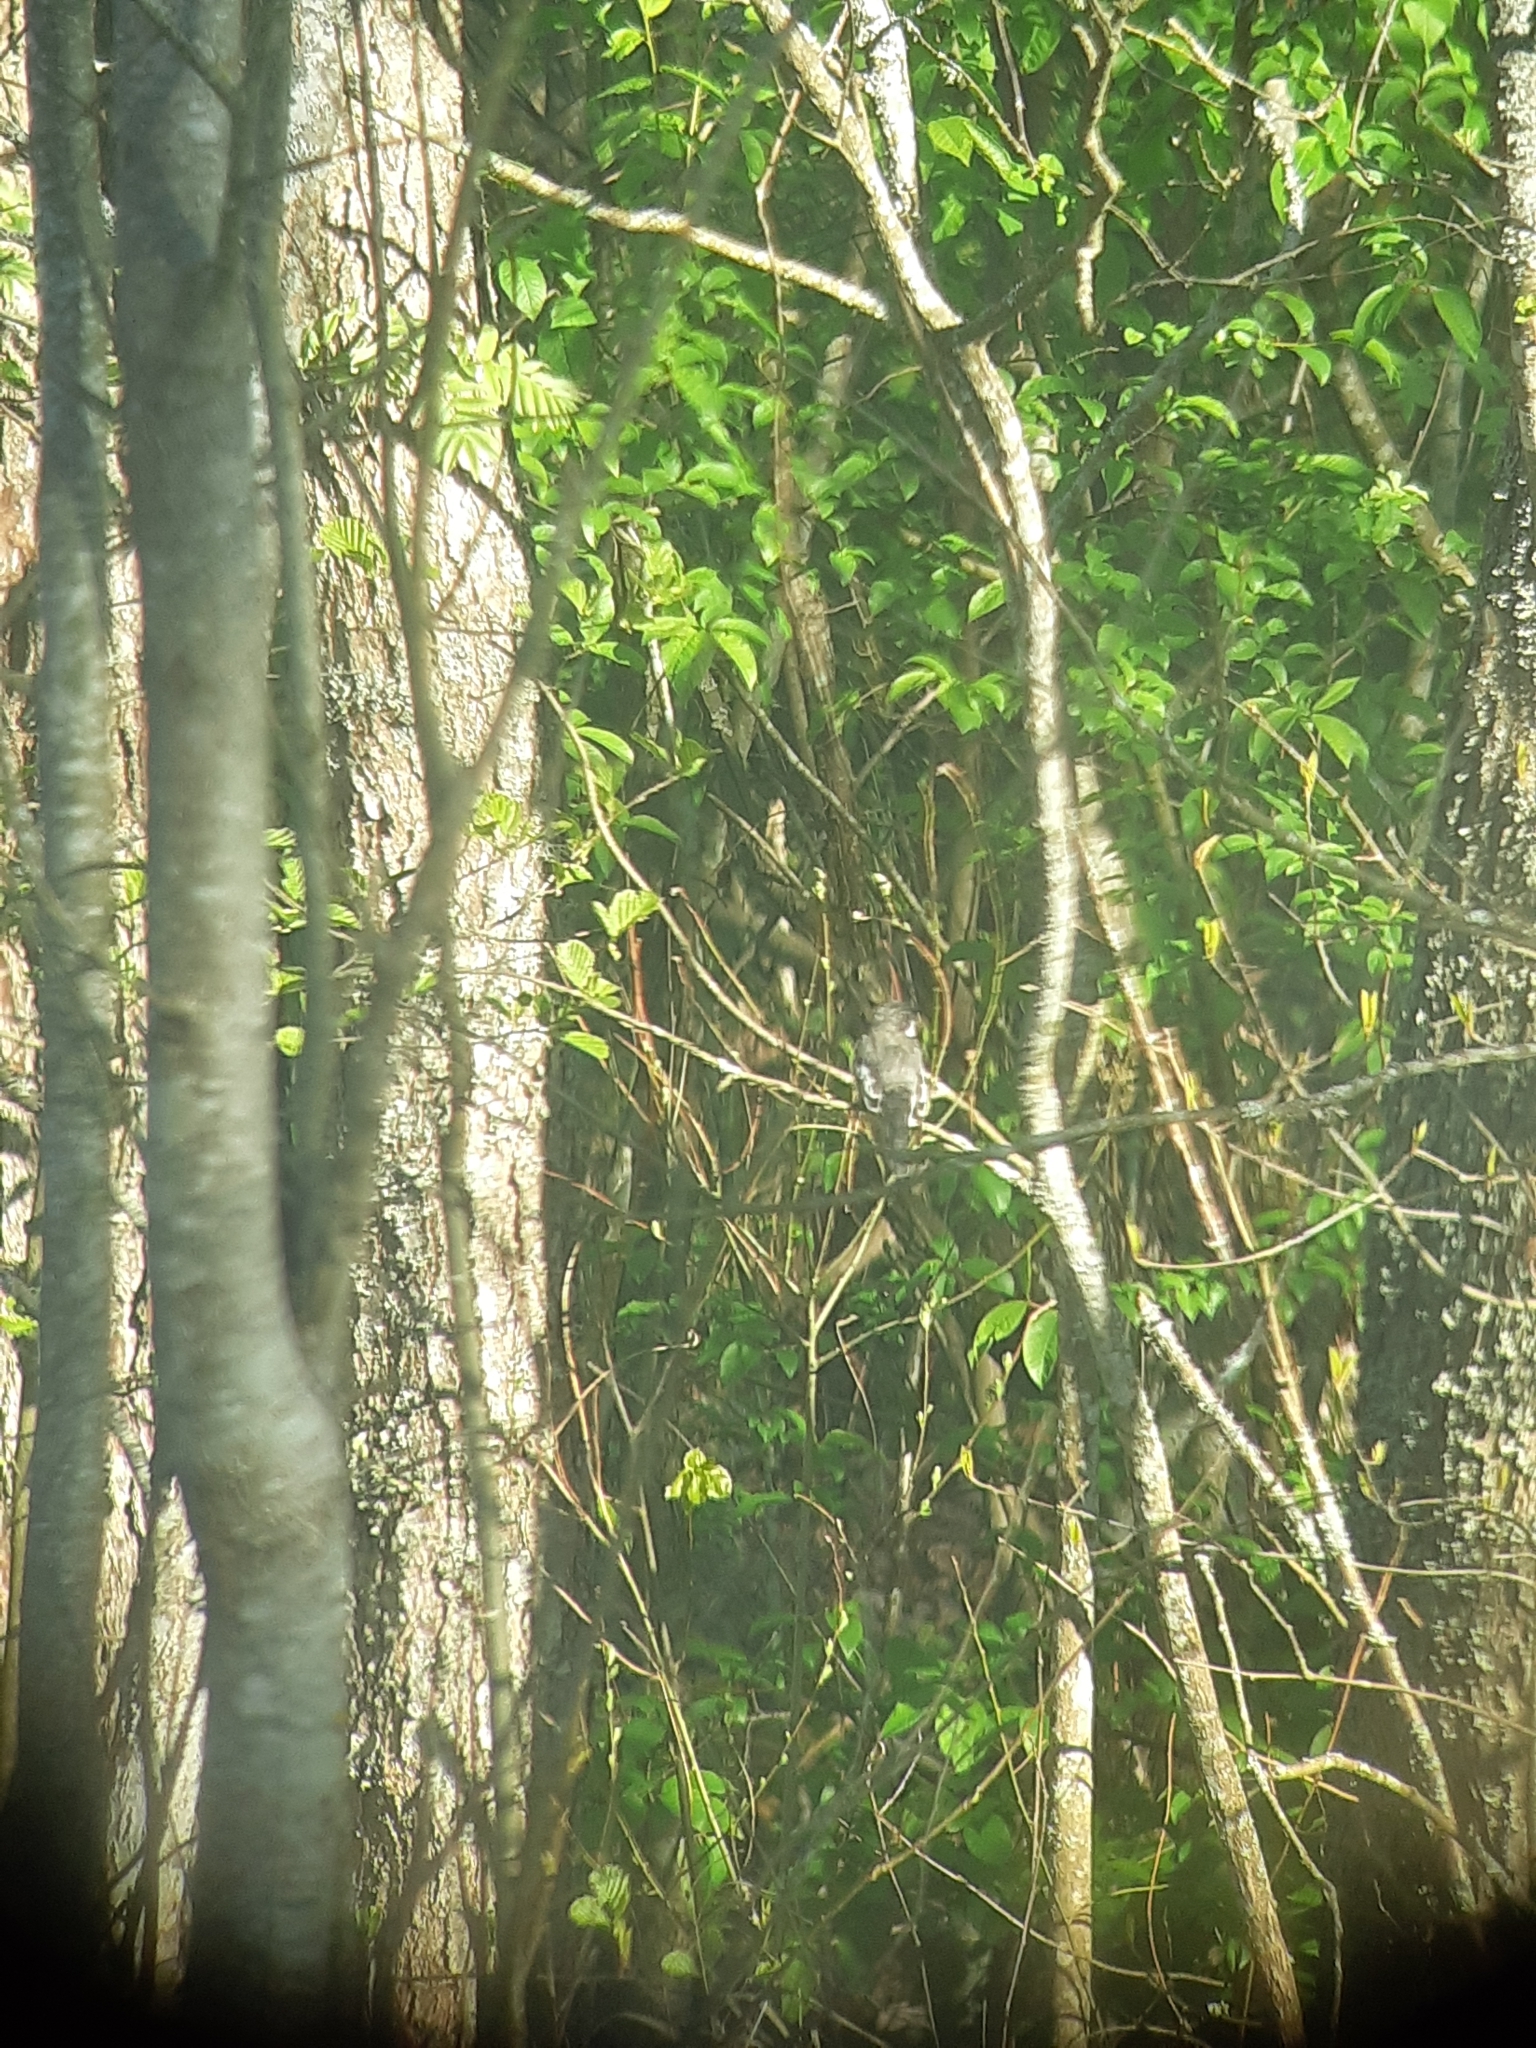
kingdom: Animalia
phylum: Chordata
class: Aves
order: Passeriformes
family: Muscicapidae
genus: Ficedula
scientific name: Ficedula hypoleuca
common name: European pied flycatcher
